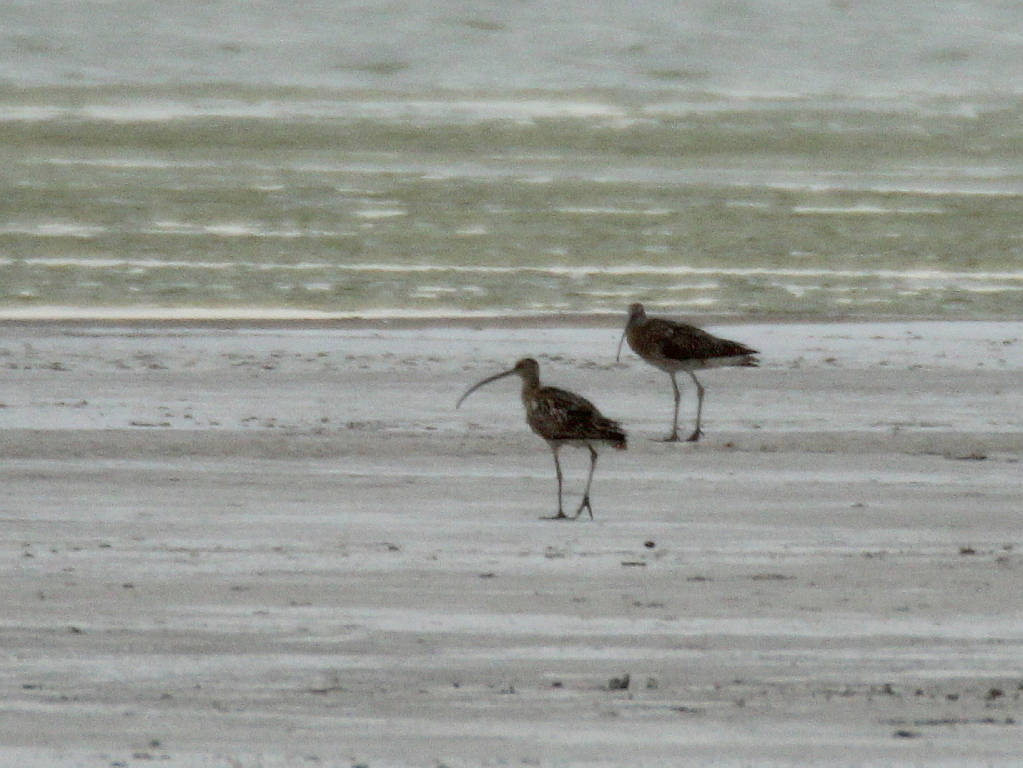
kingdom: Animalia
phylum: Chordata
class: Aves
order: Charadriiformes
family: Scolopacidae
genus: Numenius
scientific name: Numenius arquata
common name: Eurasian curlew
